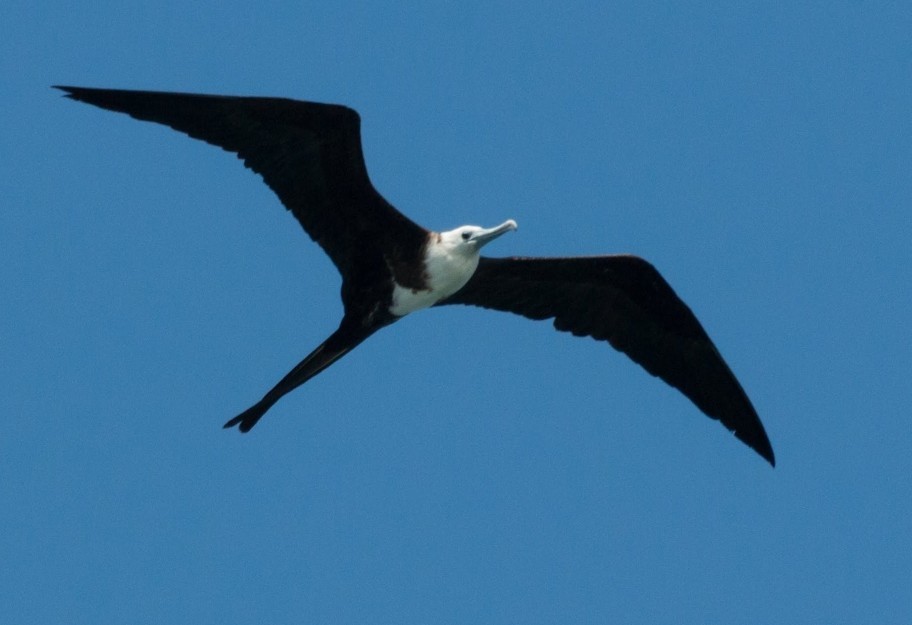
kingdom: Animalia
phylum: Chordata
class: Aves
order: Suliformes
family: Fregatidae
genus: Fregata
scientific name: Fregata magnificens
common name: Magnificent frigatebird
